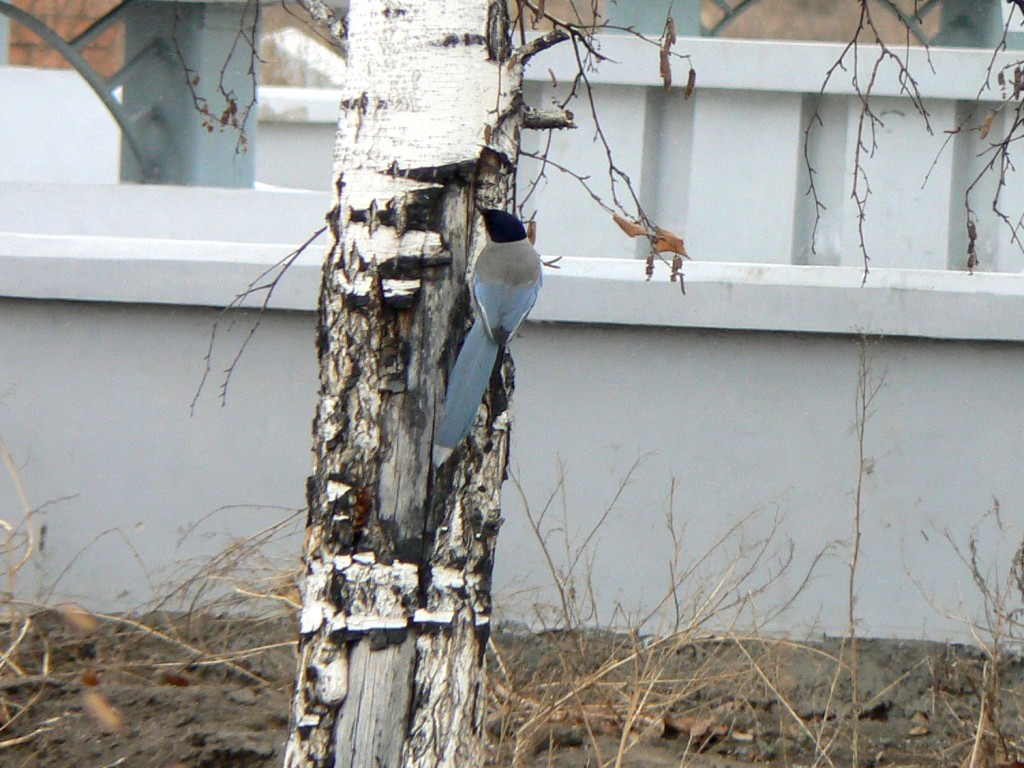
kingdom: Animalia
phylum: Chordata
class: Aves
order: Passeriformes
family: Corvidae
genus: Cyanopica
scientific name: Cyanopica cyanus
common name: Azure-winged magpie
